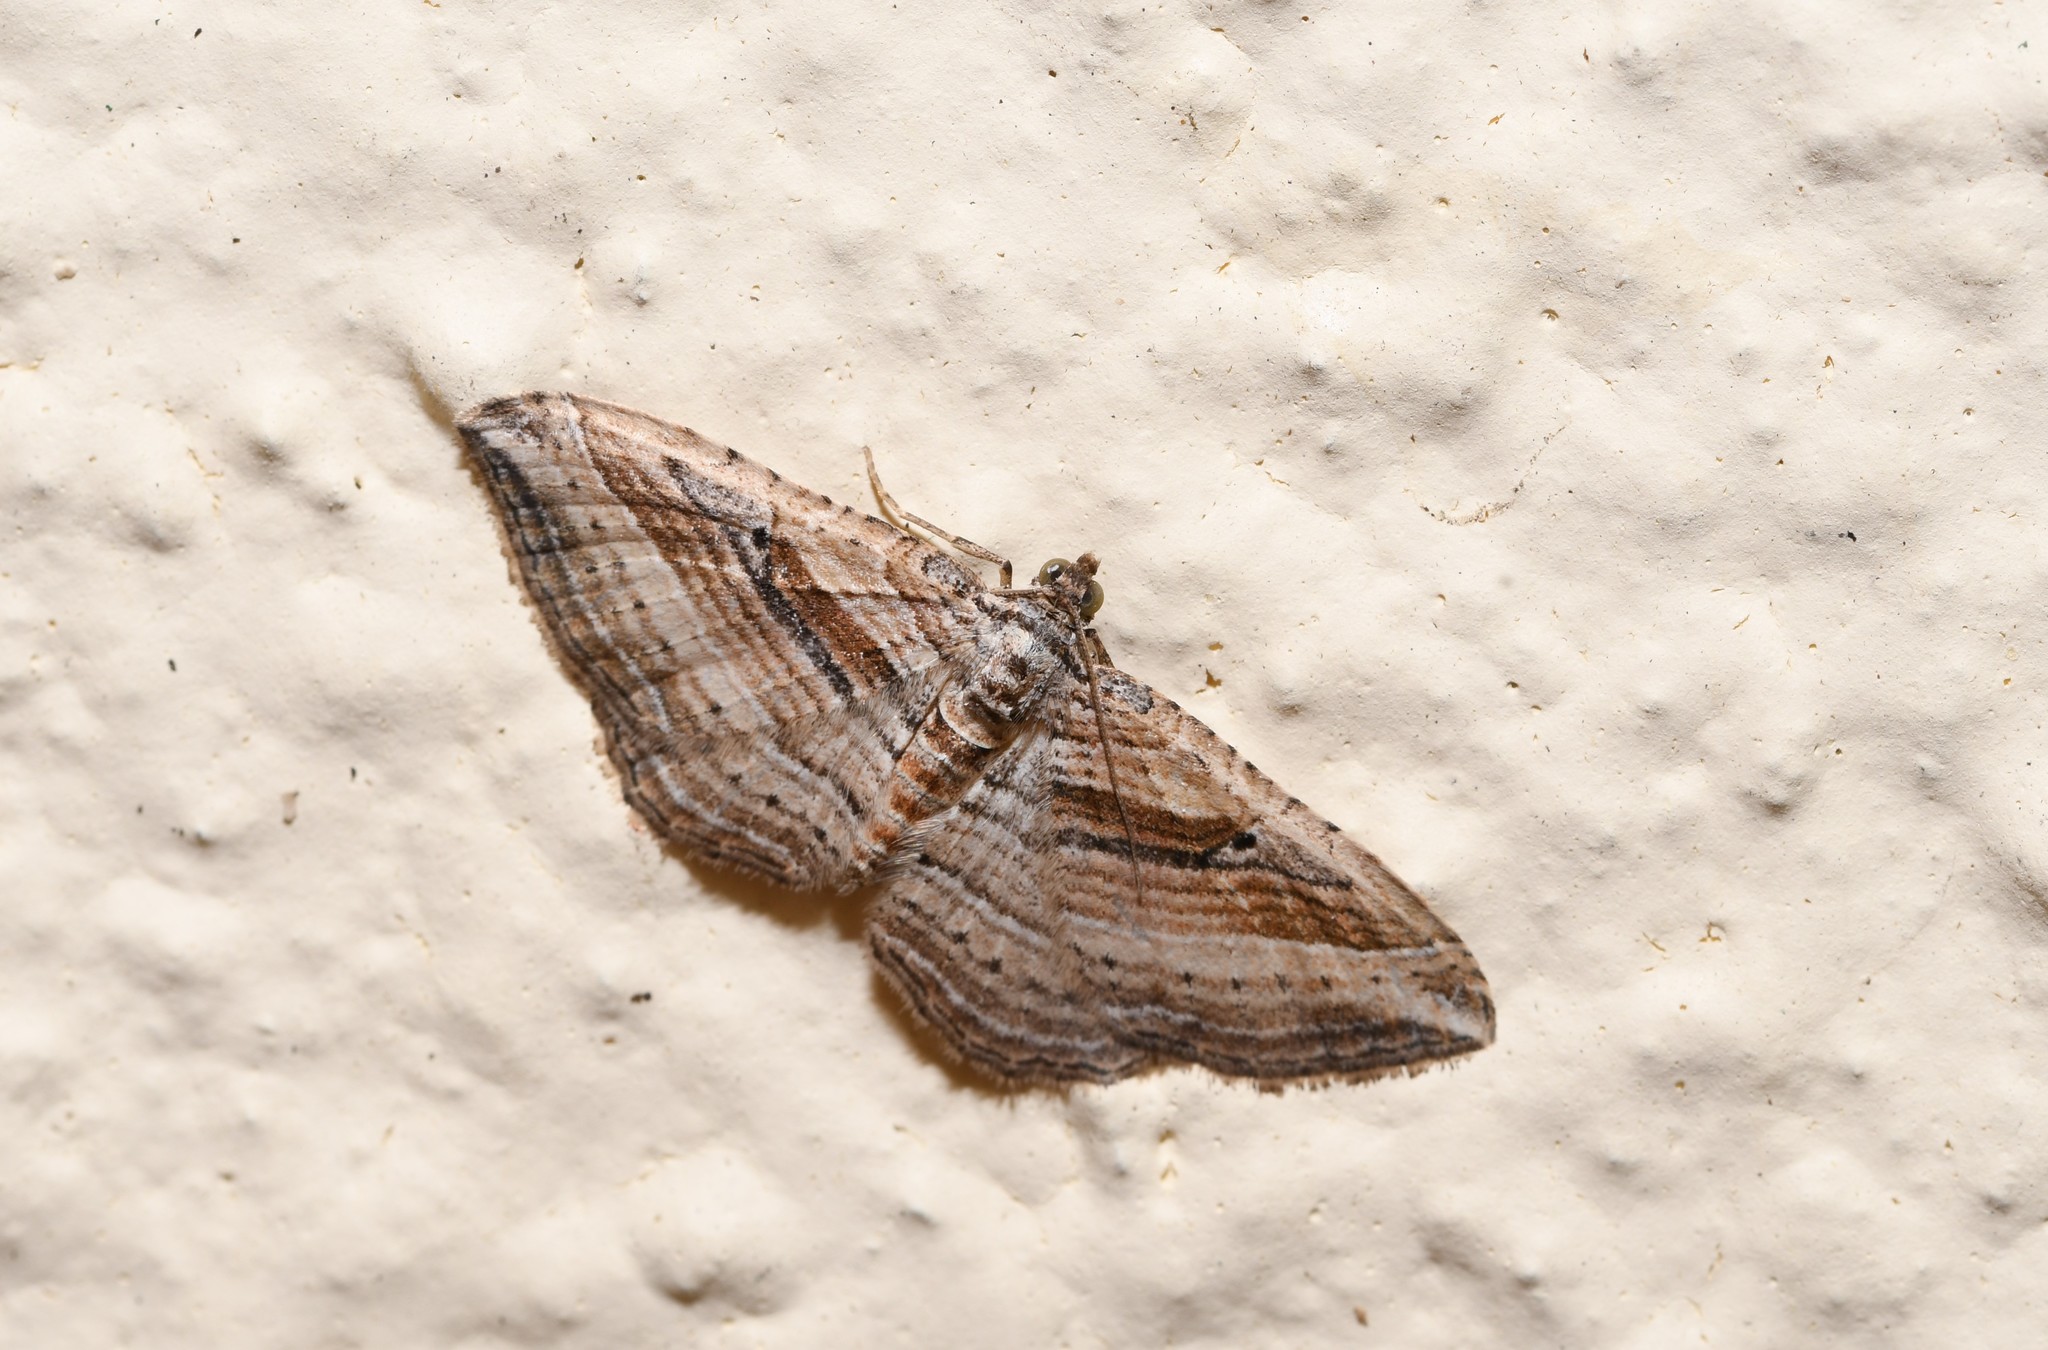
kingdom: Animalia
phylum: Arthropoda
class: Insecta
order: Lepidoptera
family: Geometridae
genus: Costaconvexa
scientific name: Costaconvexa polygrammata
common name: Many-lined
